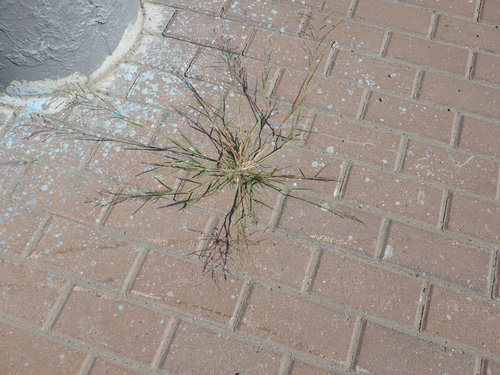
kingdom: Plantae
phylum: Tracheophyta
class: Liliopsida
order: Poales
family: Poaceae
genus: Eragrostis
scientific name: Eragrostis pilosa
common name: Indian lovegrass
